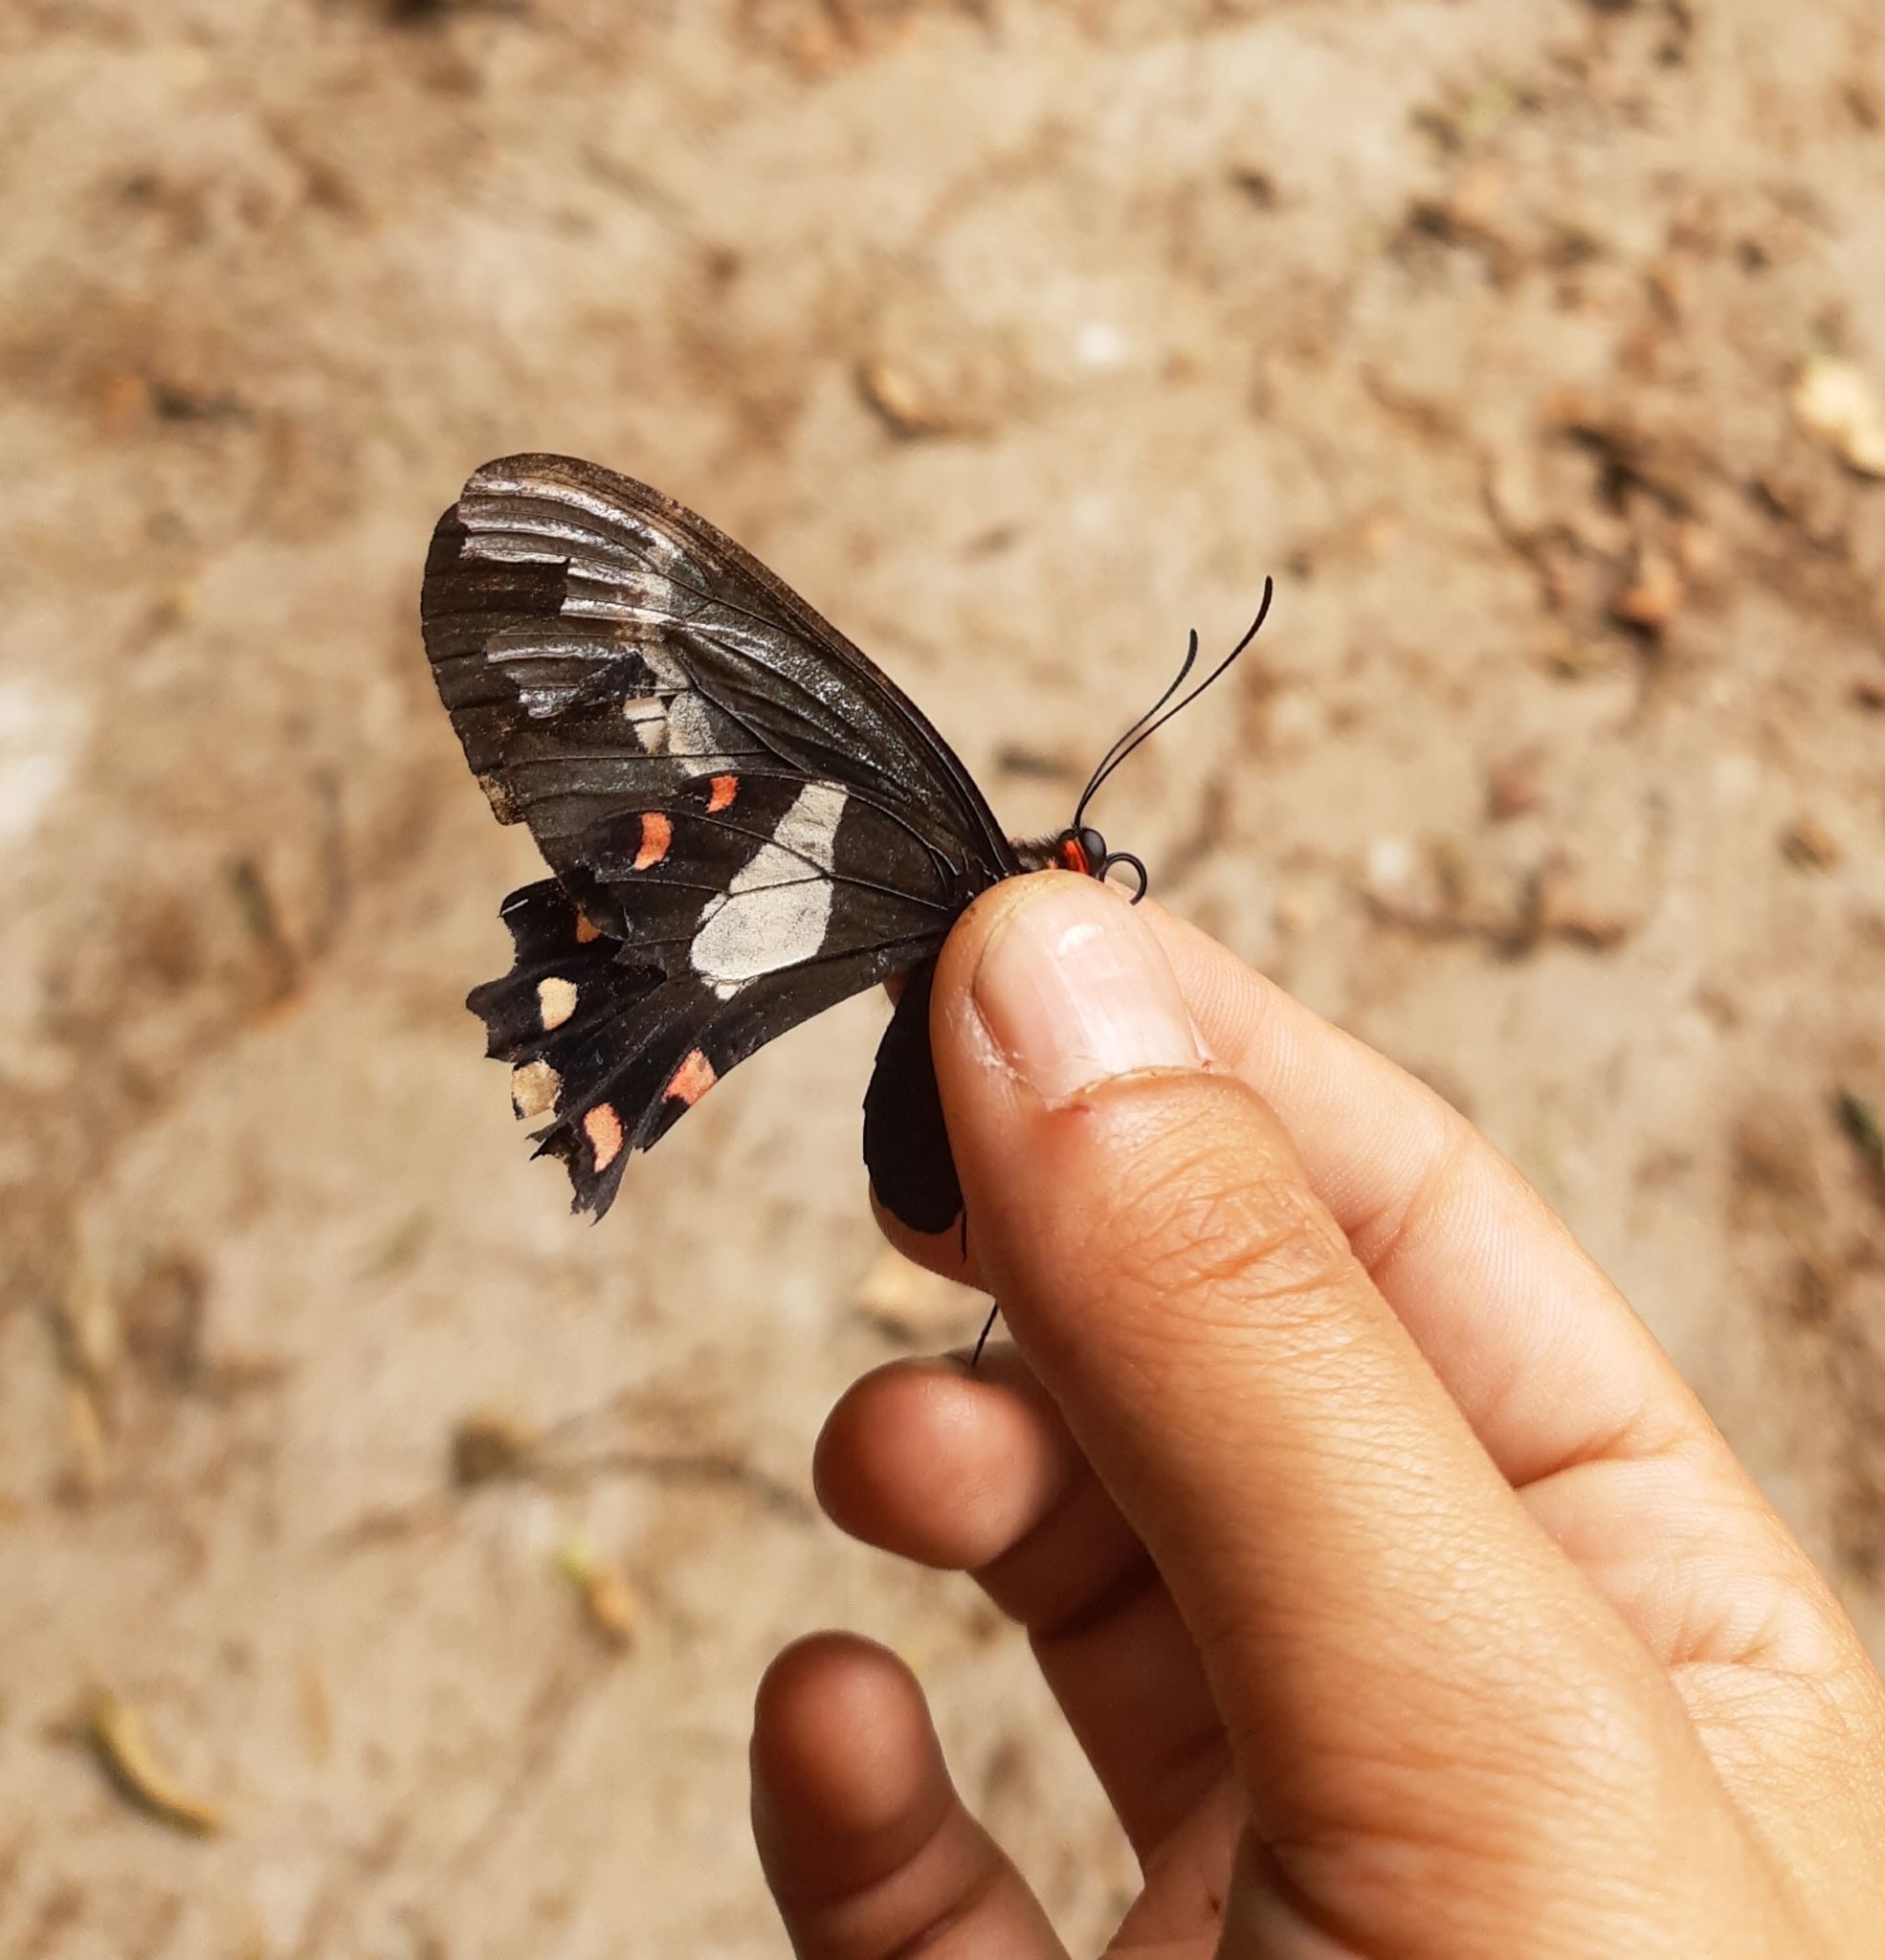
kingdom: Animalia
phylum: Arthropoda
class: Insecta
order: Lepidoptera
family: Papilionidae
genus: Parides
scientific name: Parides agavus
